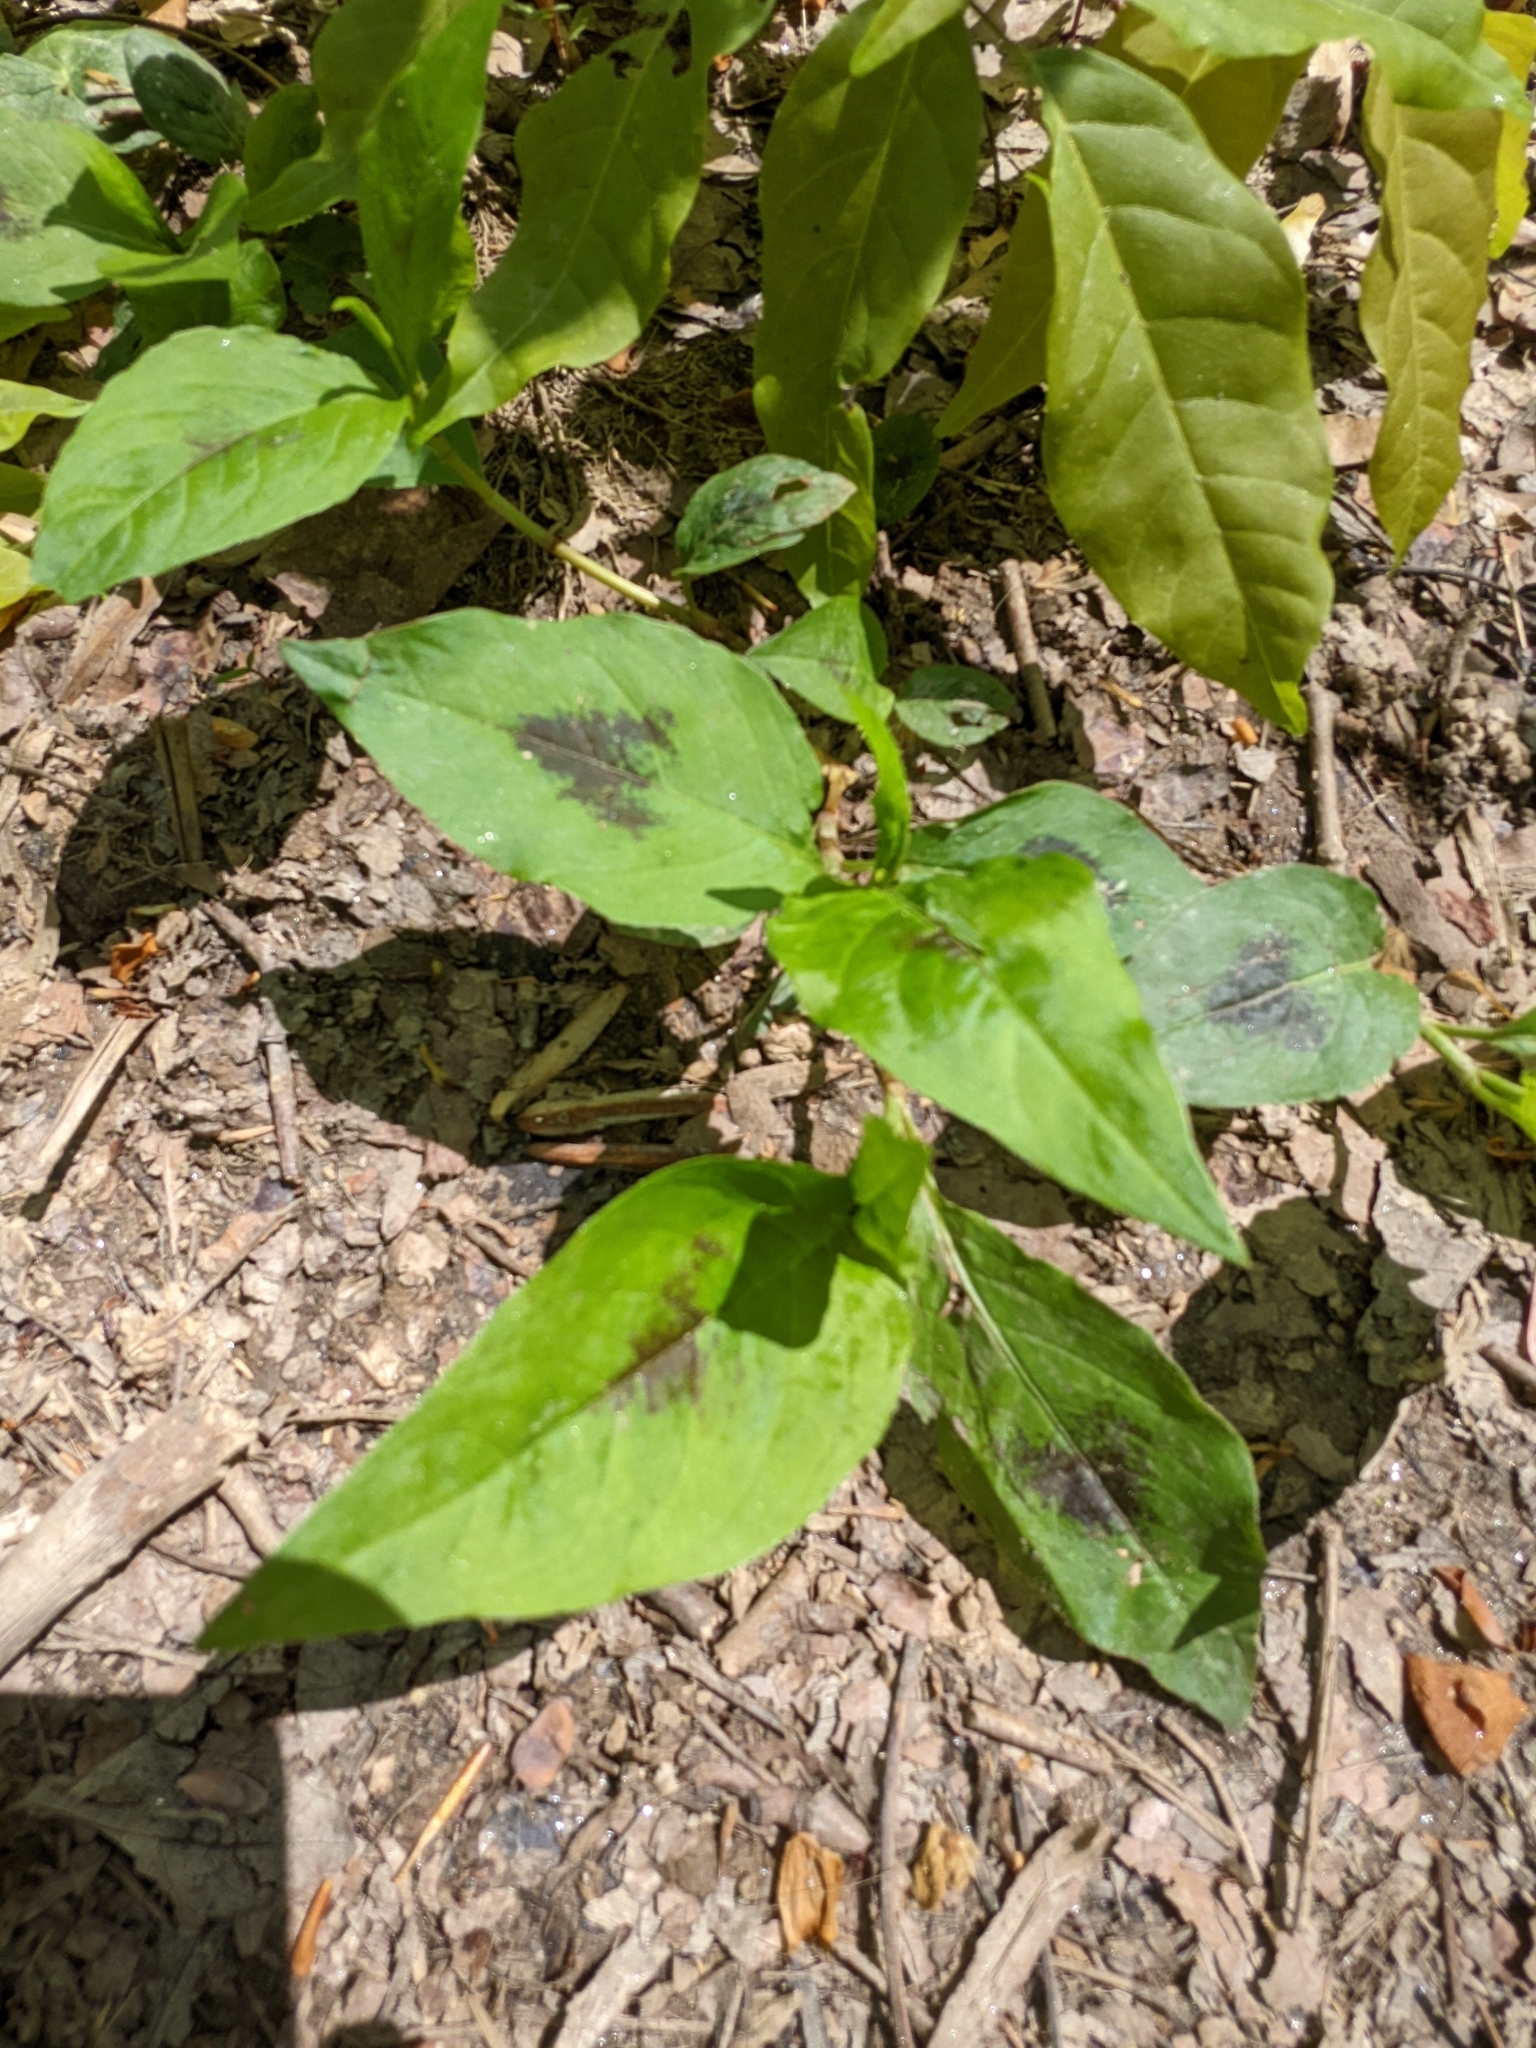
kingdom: Plantae
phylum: Tracheophyta
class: Magnoliopsida
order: Caryophyllales
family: Polygonaceae
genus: Persicaria
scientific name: Persicaria virginiana
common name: Jumpseed
